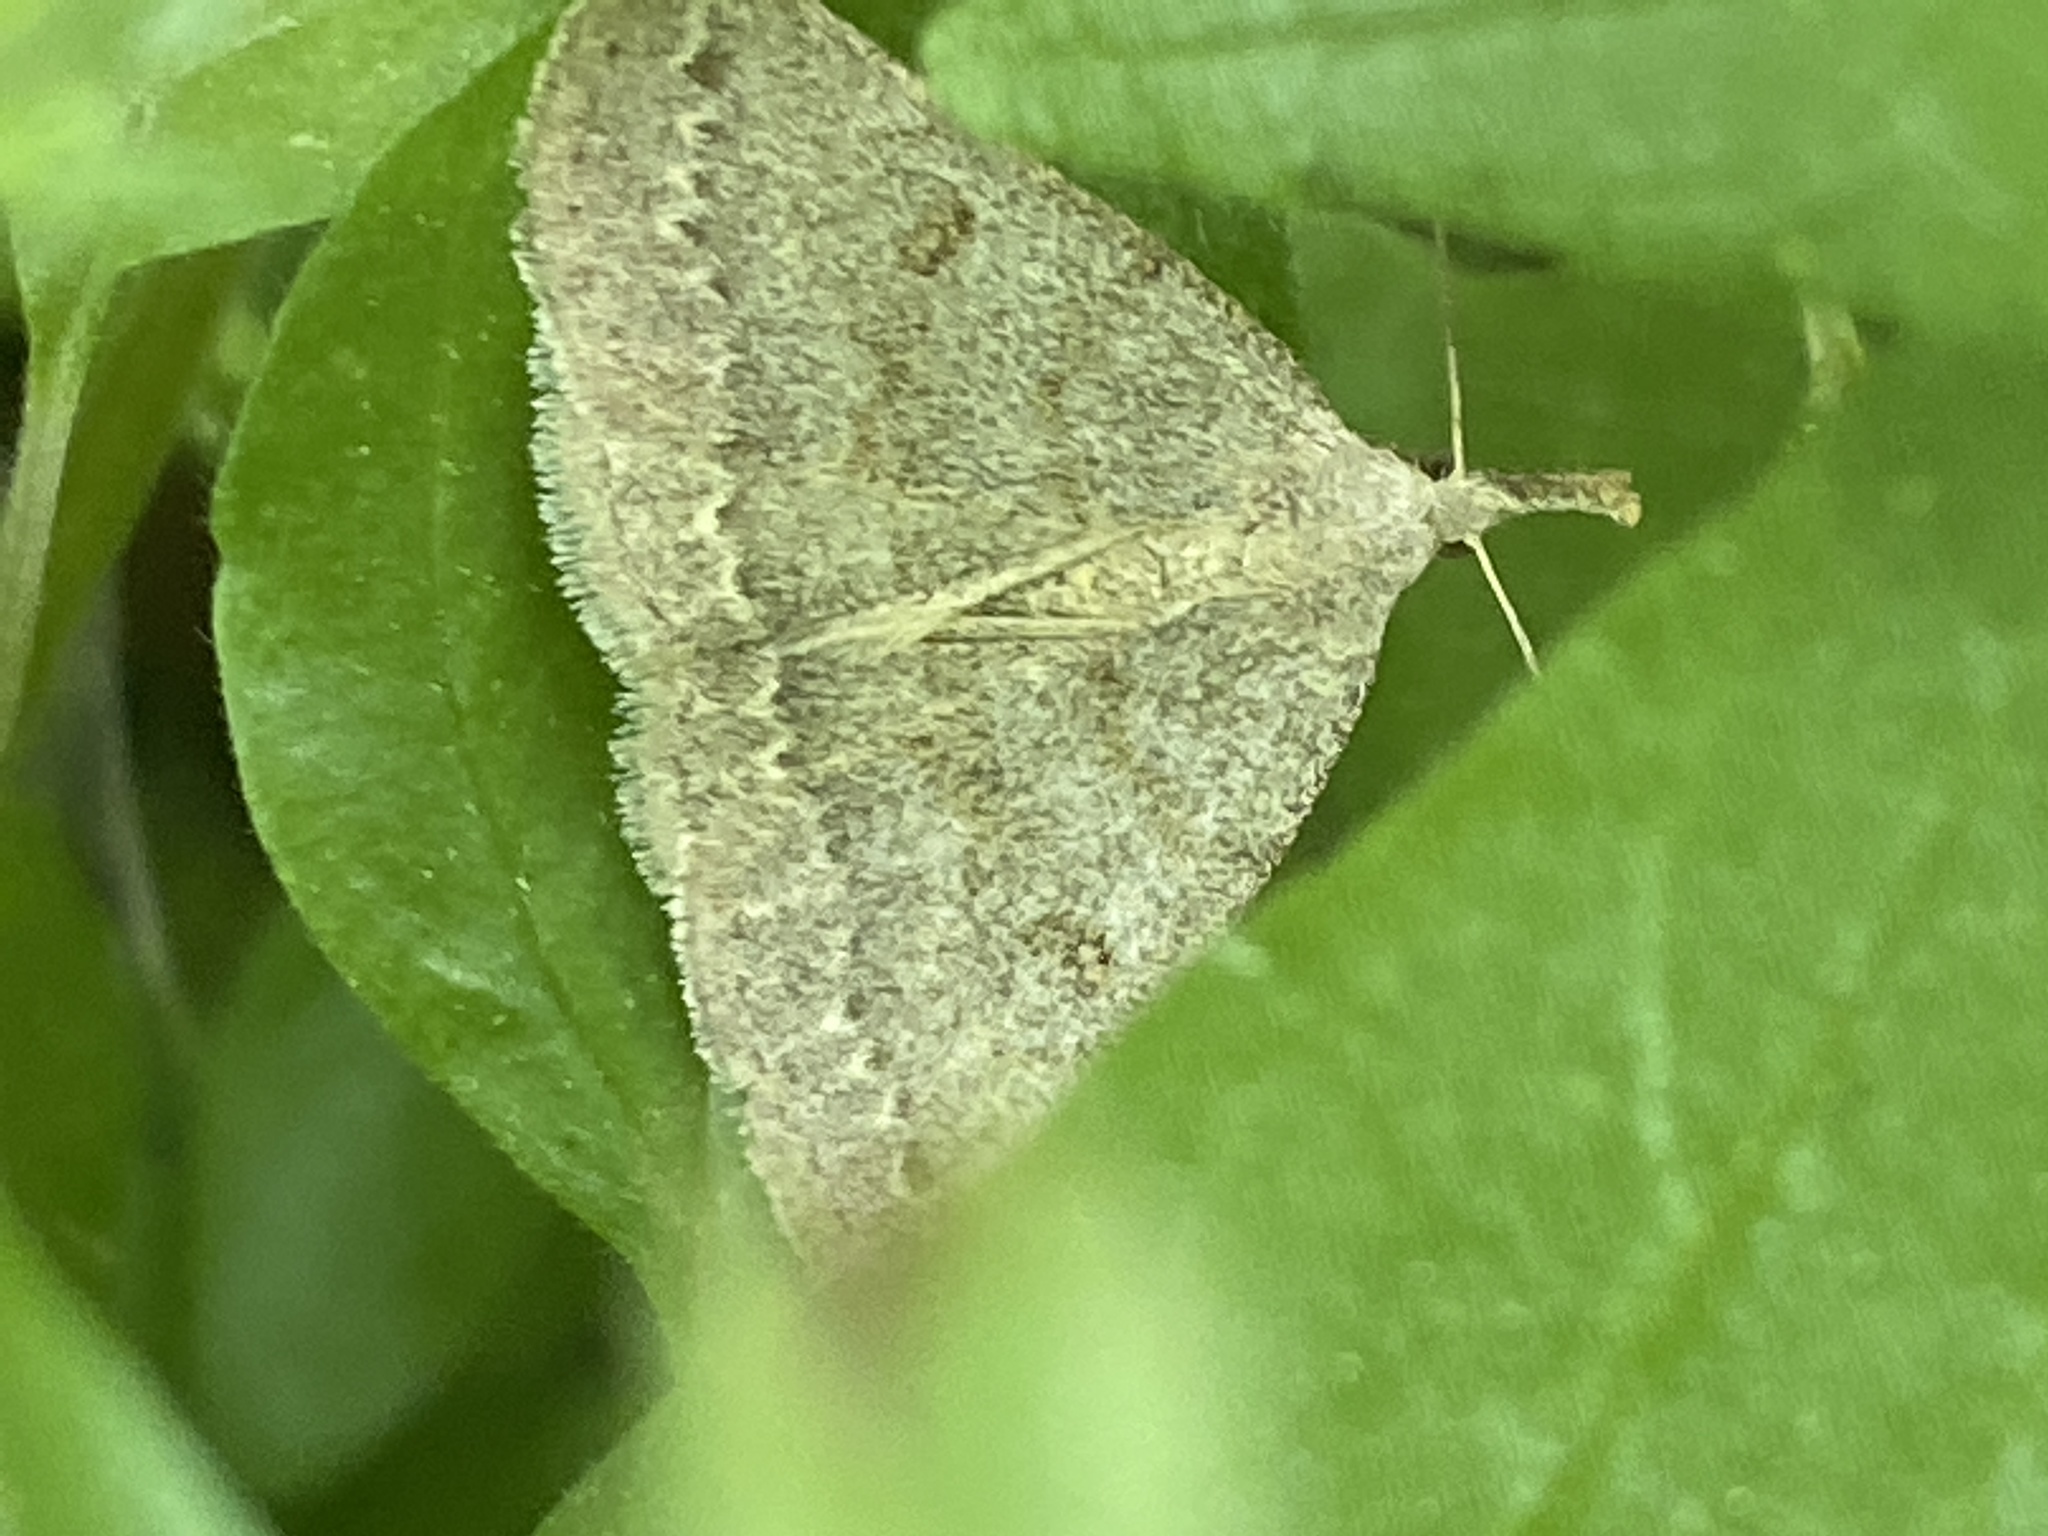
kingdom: Animalia
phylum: Arthropoda
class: Insecta
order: Lepidoptera
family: Erebidae
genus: Macrochilo
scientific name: Macrochilo morbidalis
